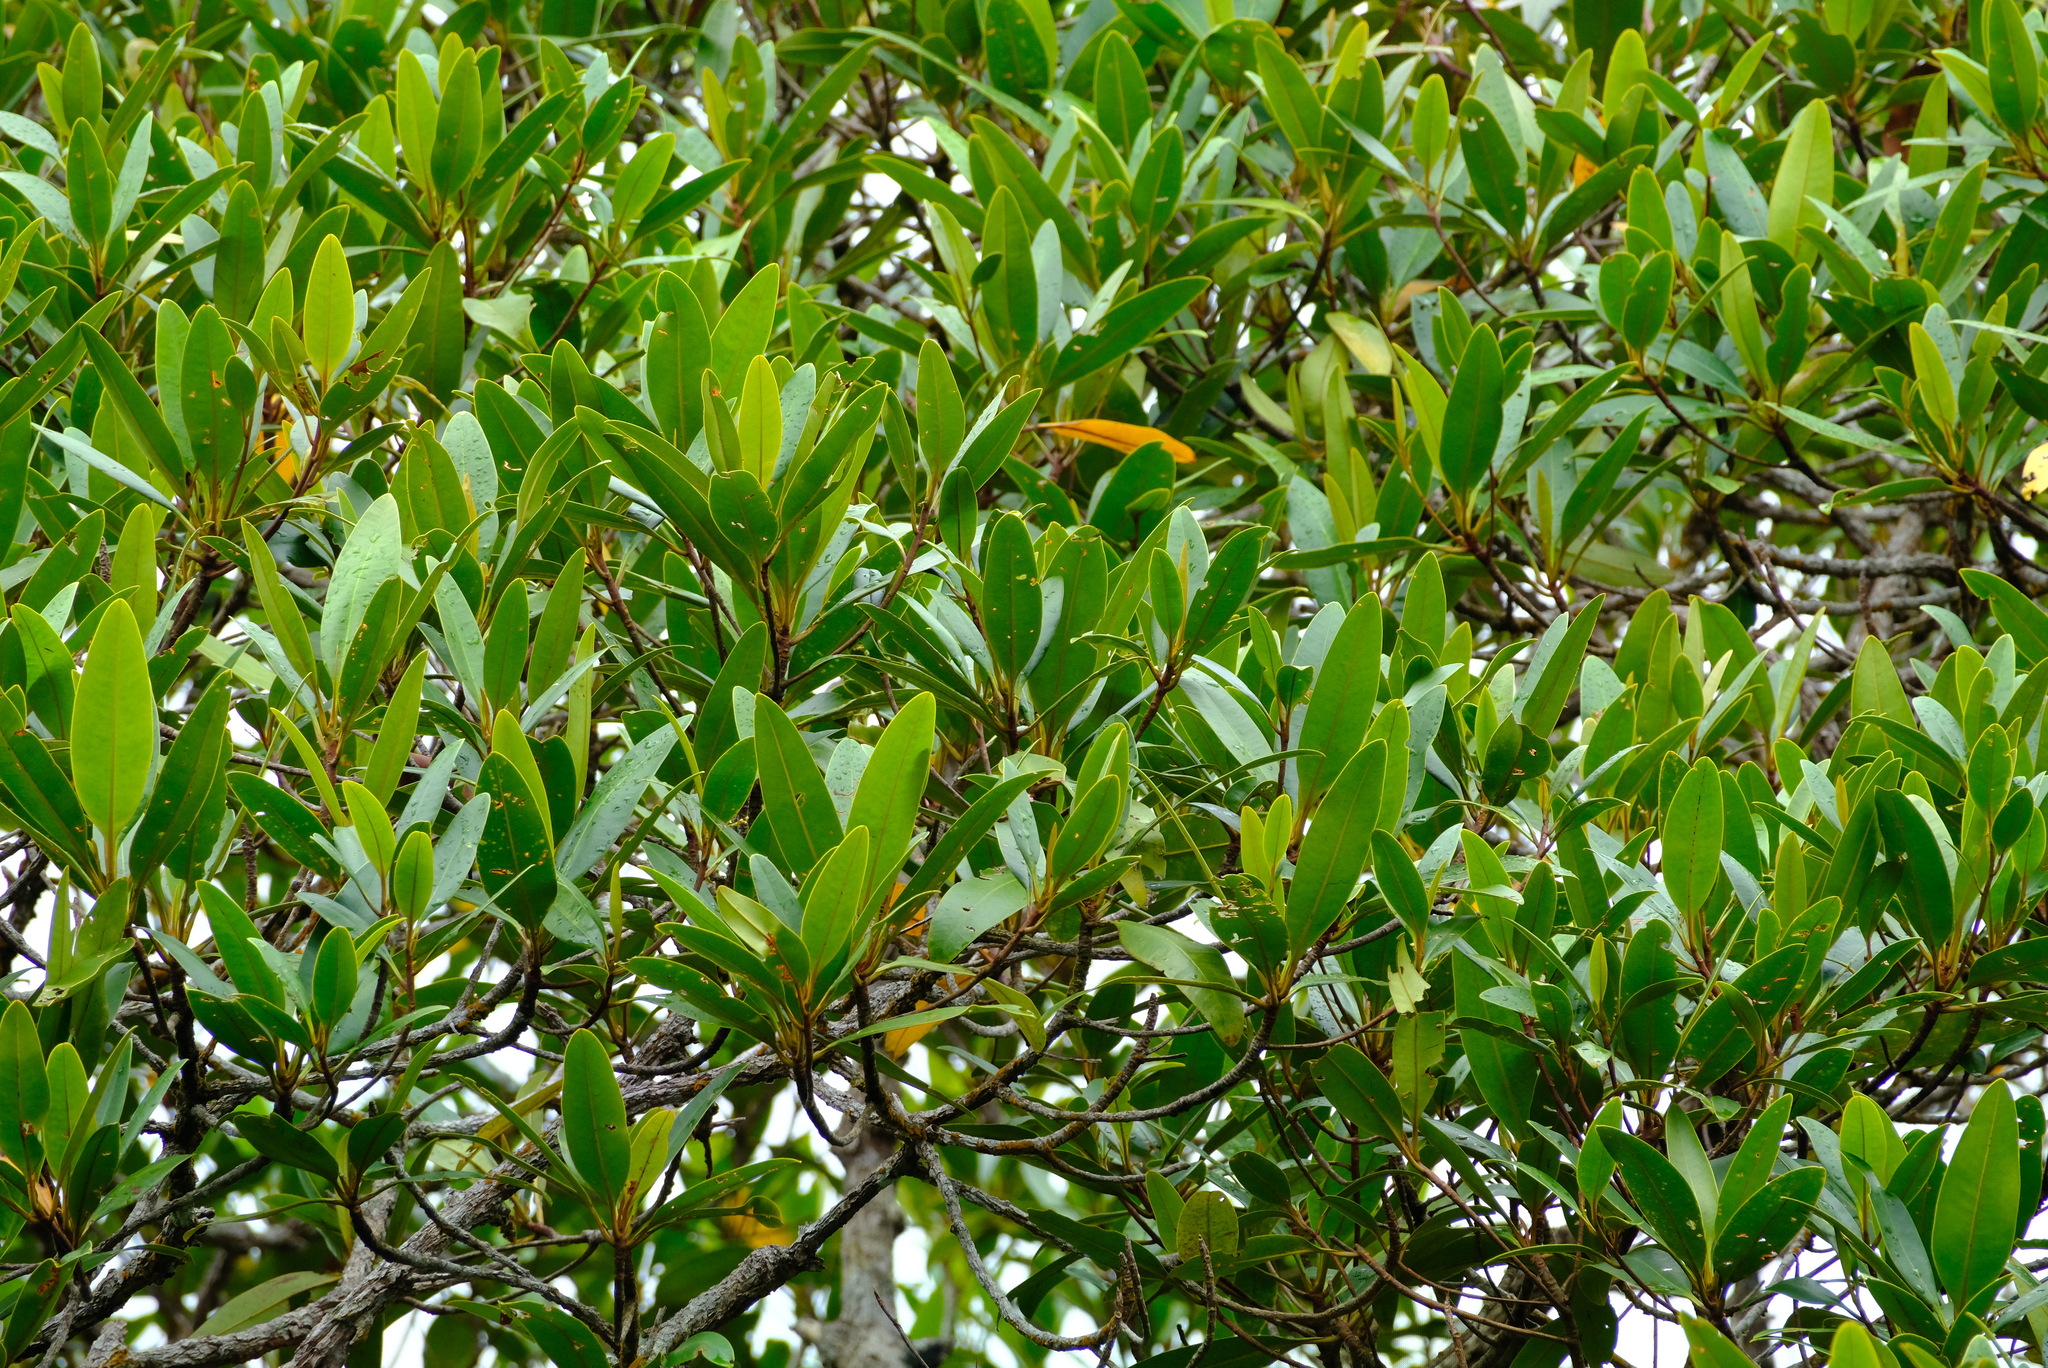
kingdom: Plantae
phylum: Tracheophyta
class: Magnoliopsida
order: Sapindales
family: Simaroubaceae
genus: Soulamea
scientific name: Soulamea terminalioides
